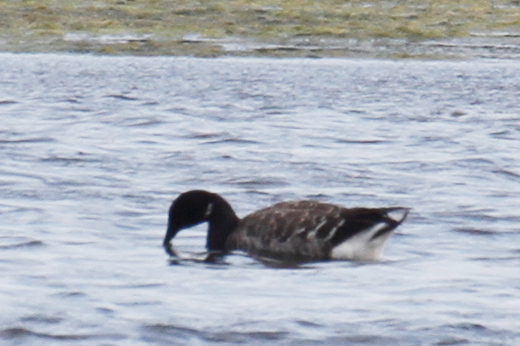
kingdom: Animalia
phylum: Chordata
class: Aves
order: Anseriformes
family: Anatidae
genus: Branta
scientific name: Branta bernicla
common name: Brant goose
